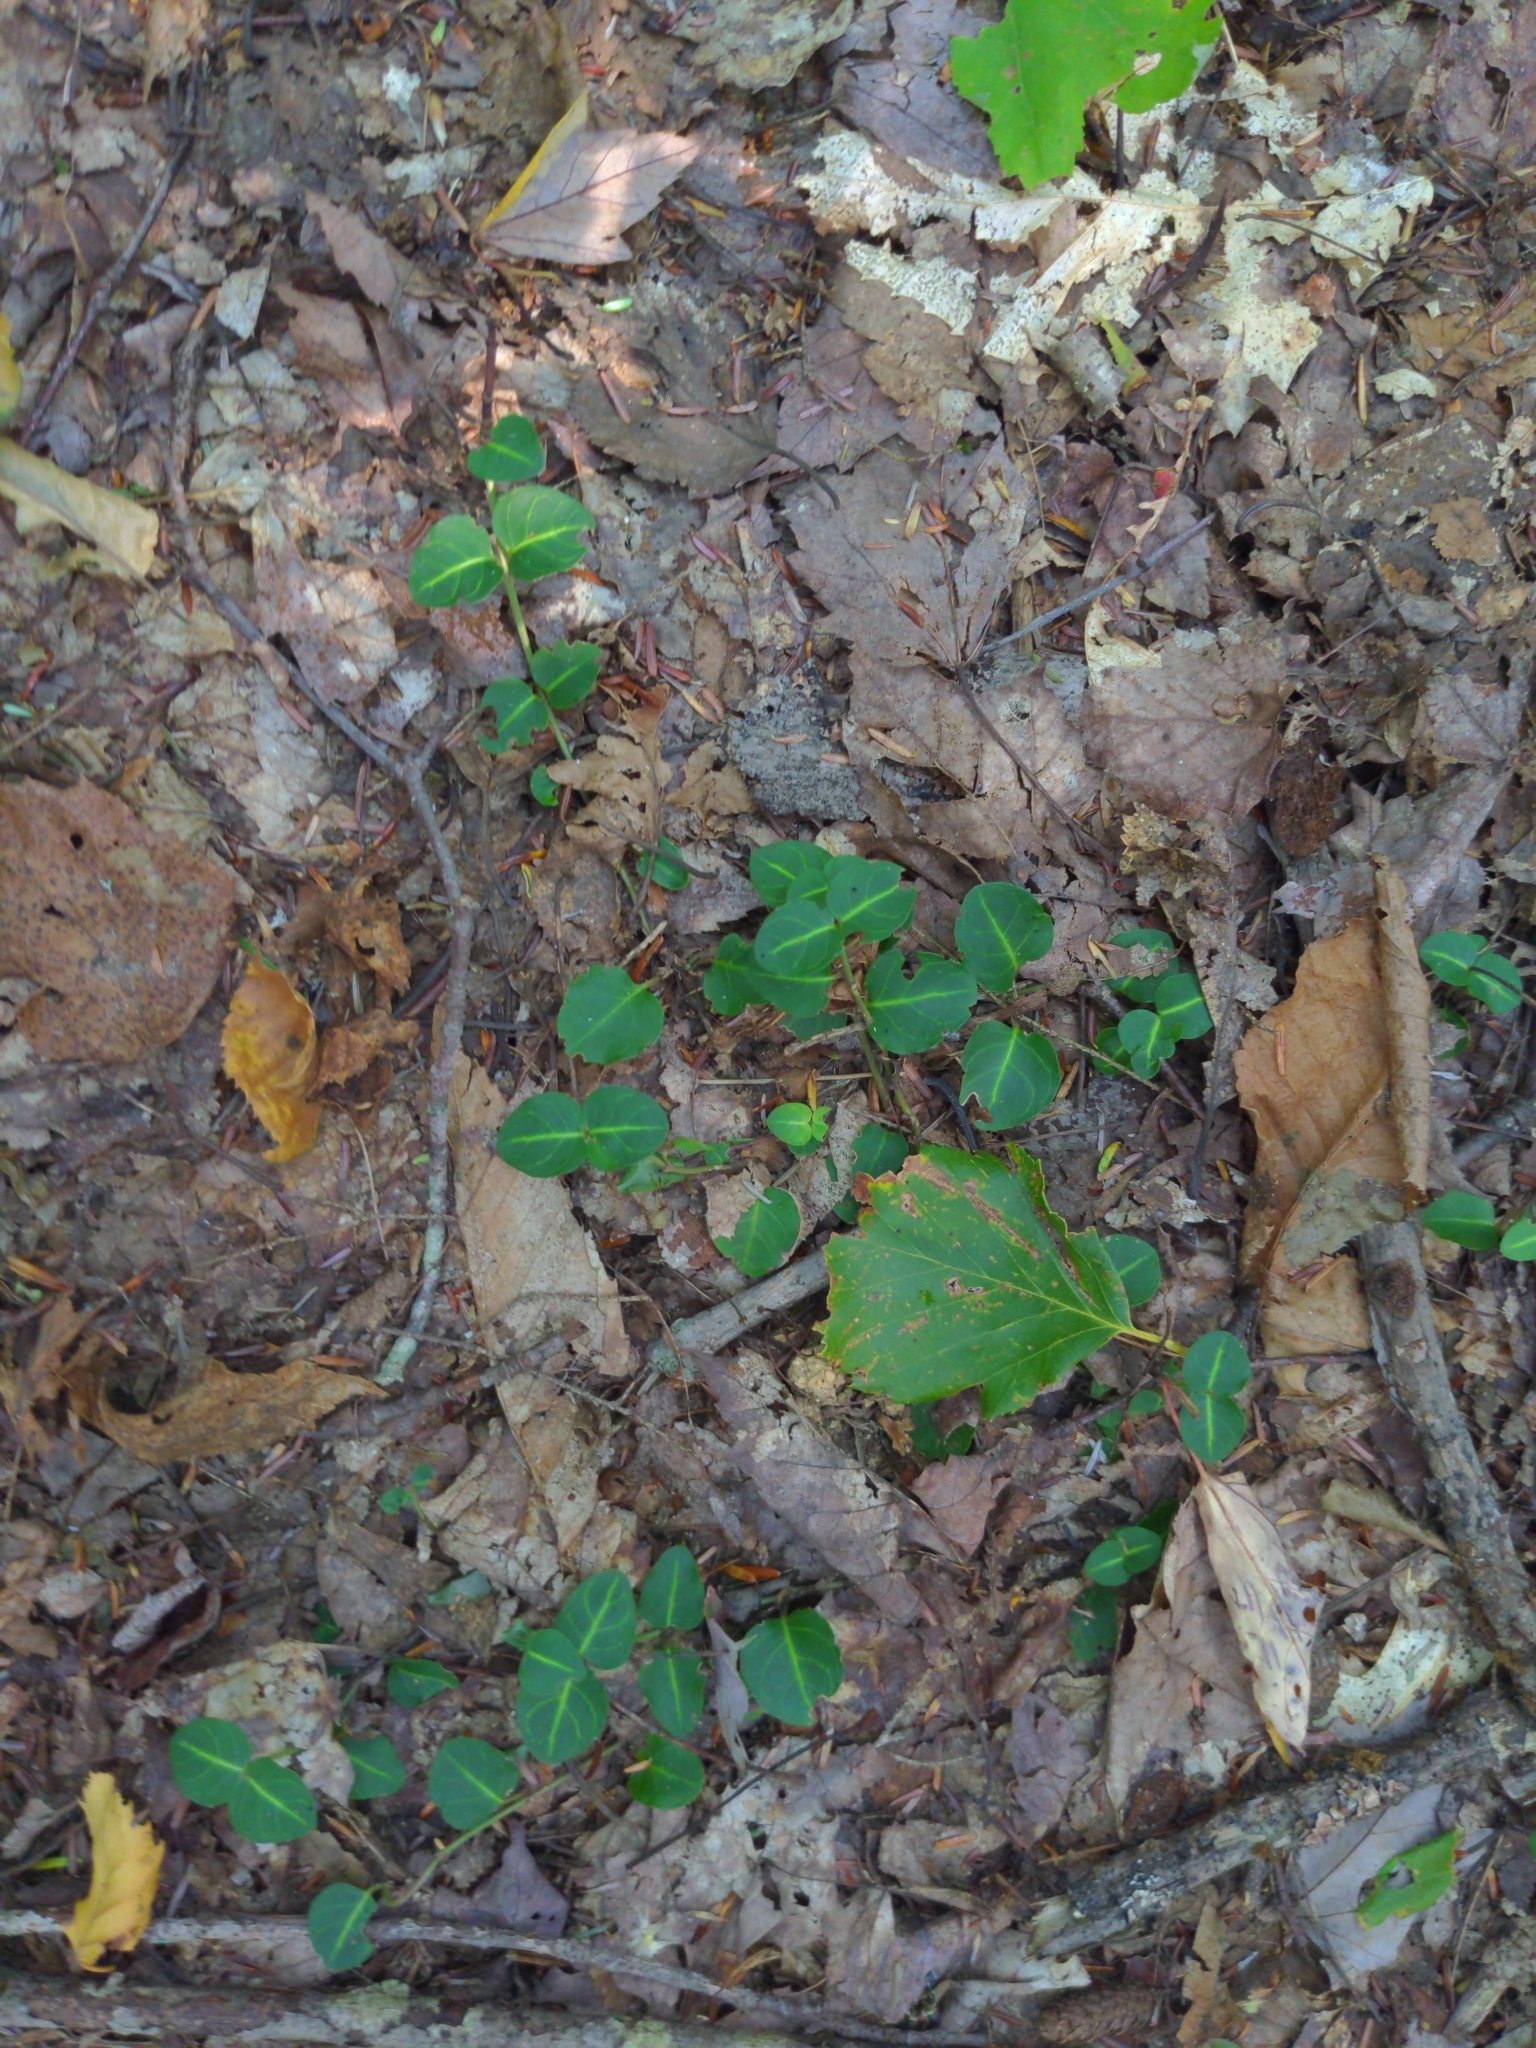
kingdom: Plantae
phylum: Tracheophyta
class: Magnoliopsida
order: Gentianales
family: Rubiaceae
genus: Mitchella
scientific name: Mitchella repens
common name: Partridge-berry
